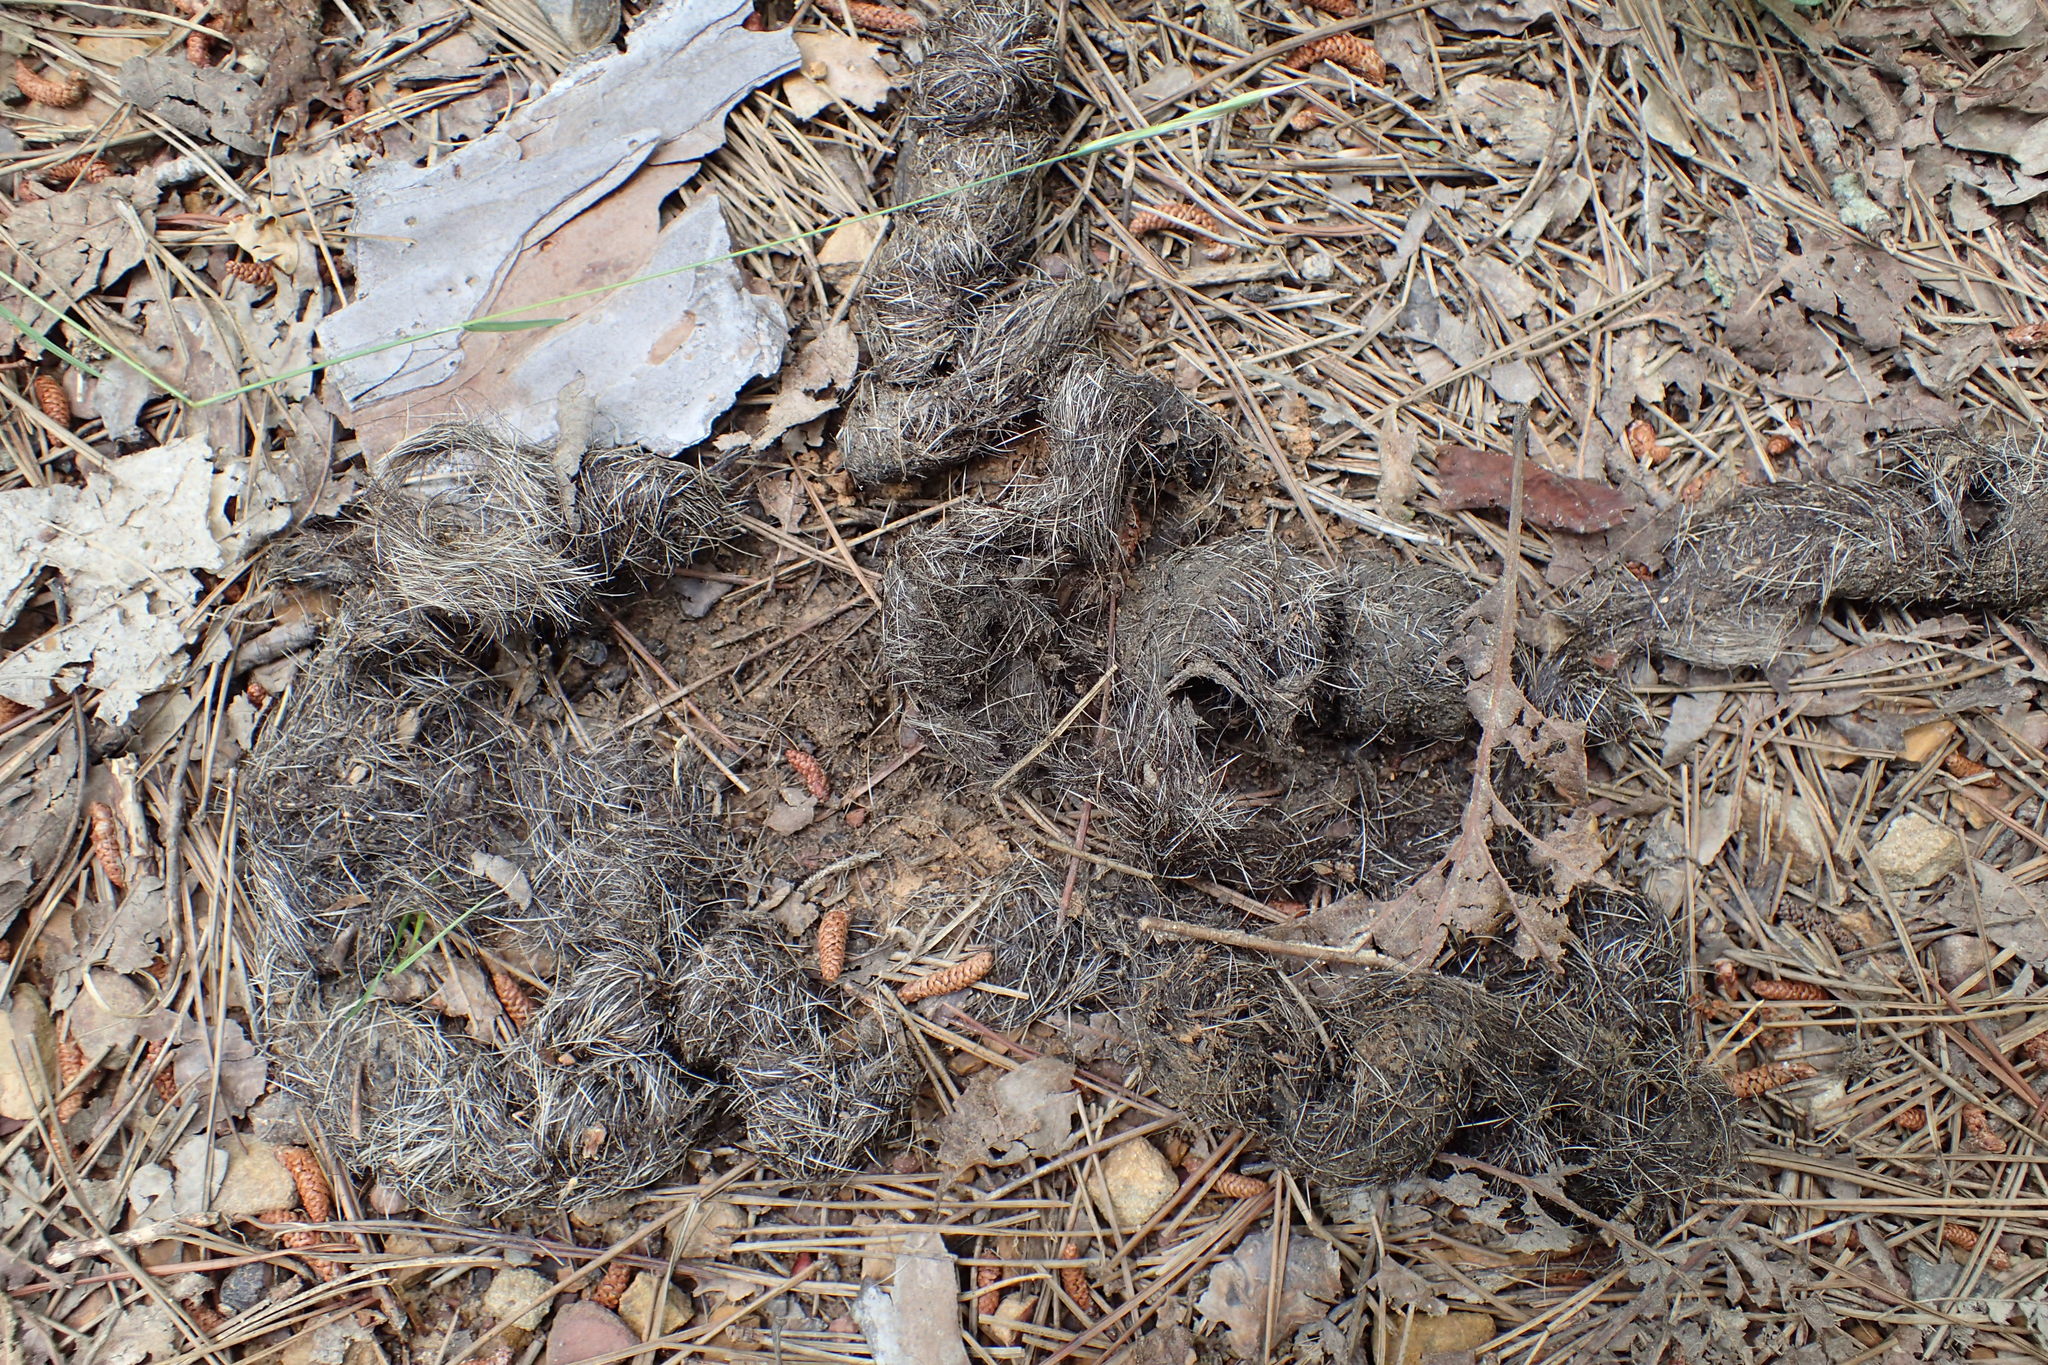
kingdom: Animalia
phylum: Chordata
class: Mammalia
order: Carnivora
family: Canidae
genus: Canis
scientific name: Canis latrans
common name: Coyote
